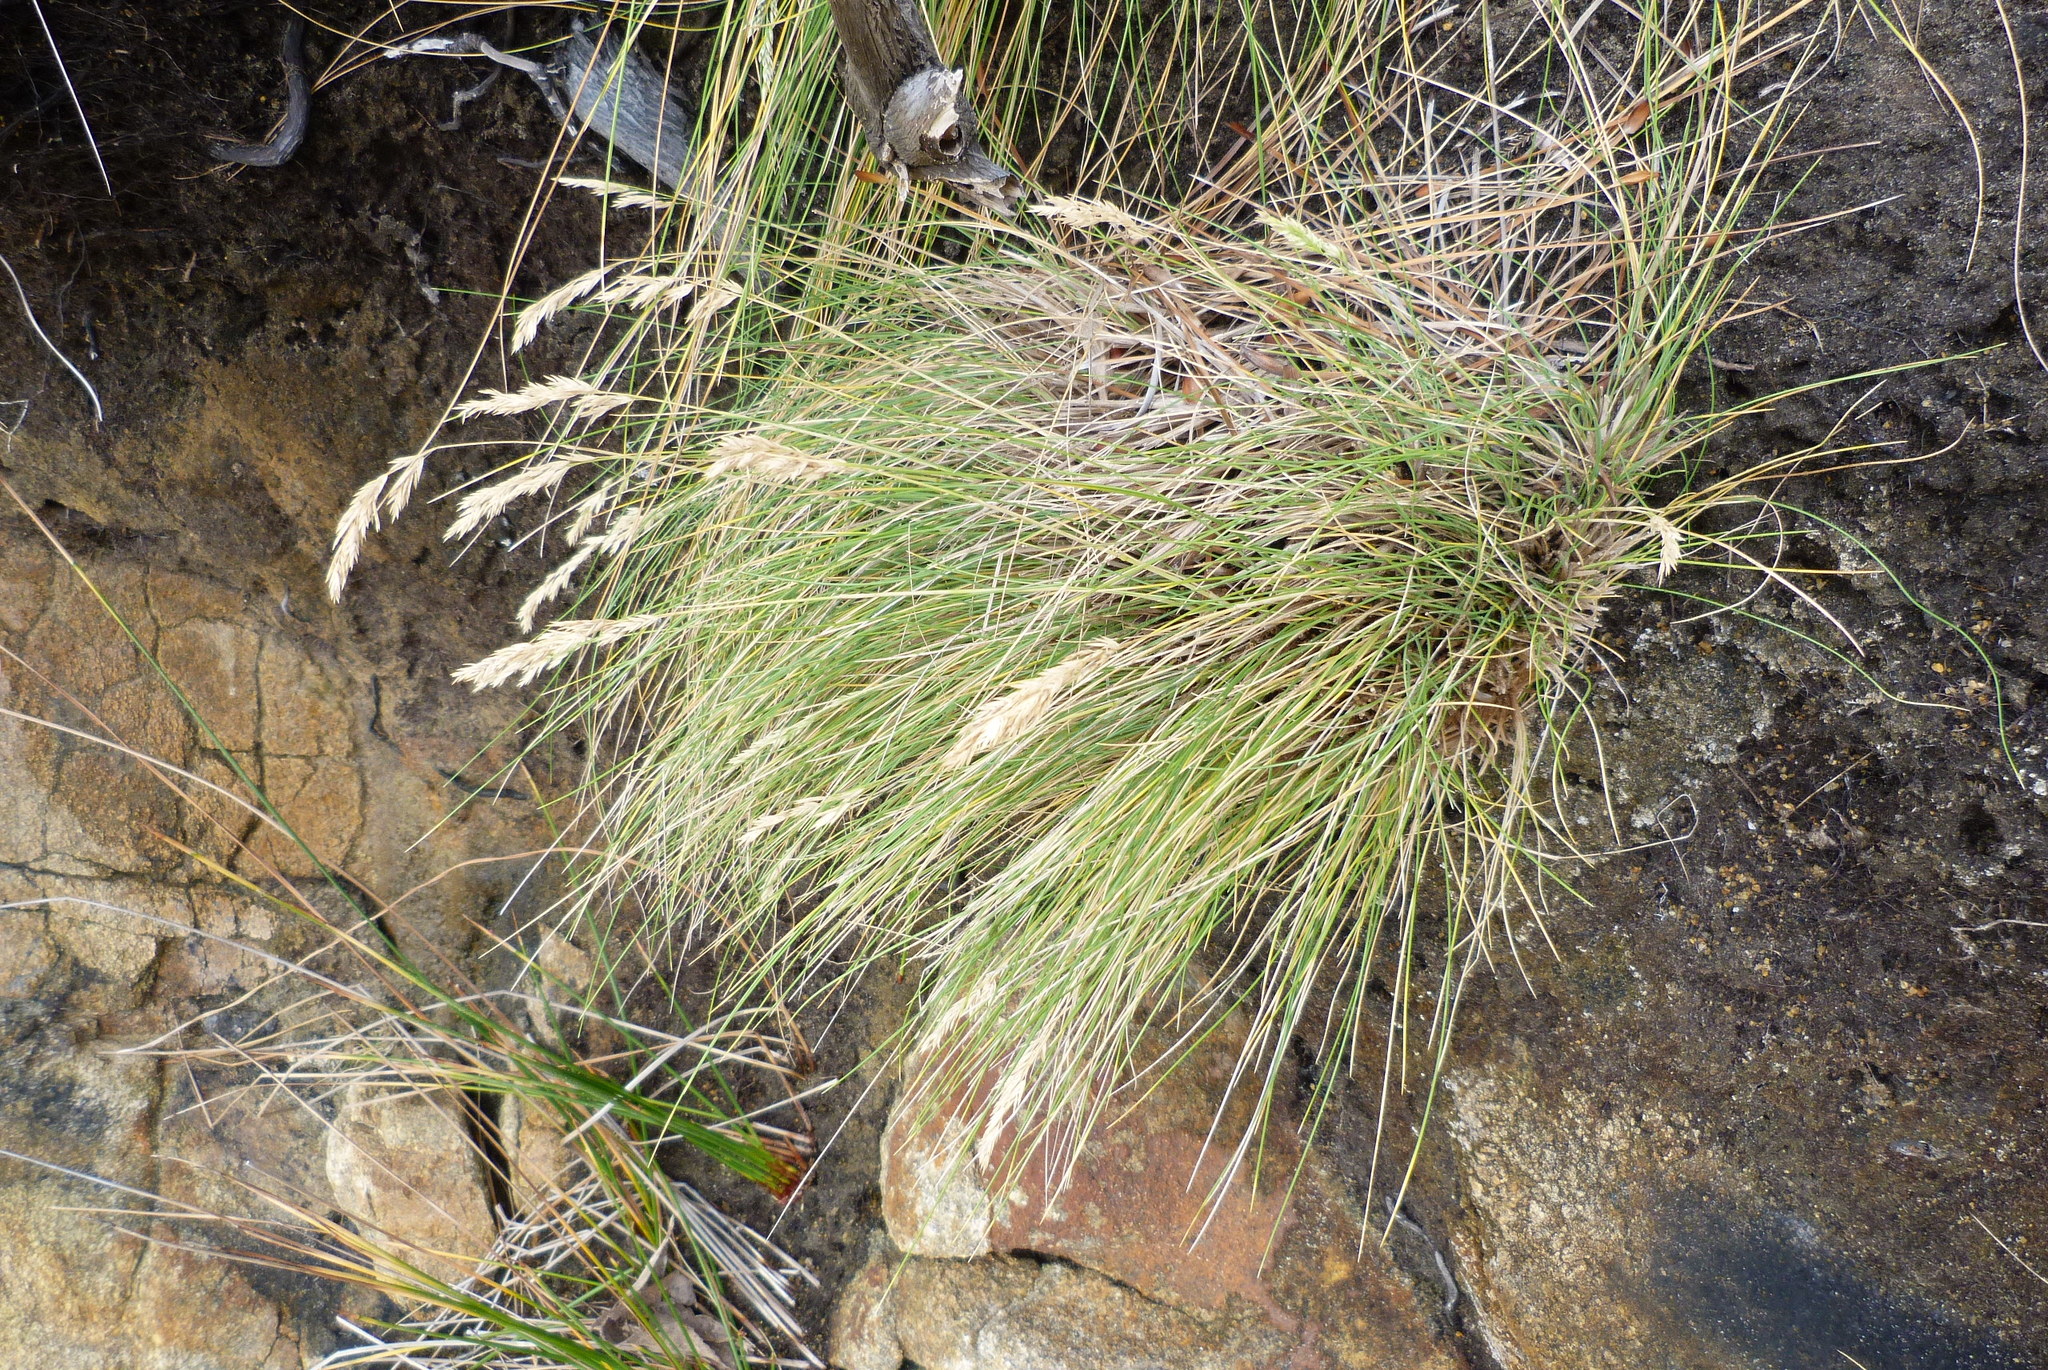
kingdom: Plantae
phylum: Tracheophyta
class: Liliopsida
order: Poales
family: Poaceae
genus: Poa
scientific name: Poa astonii
